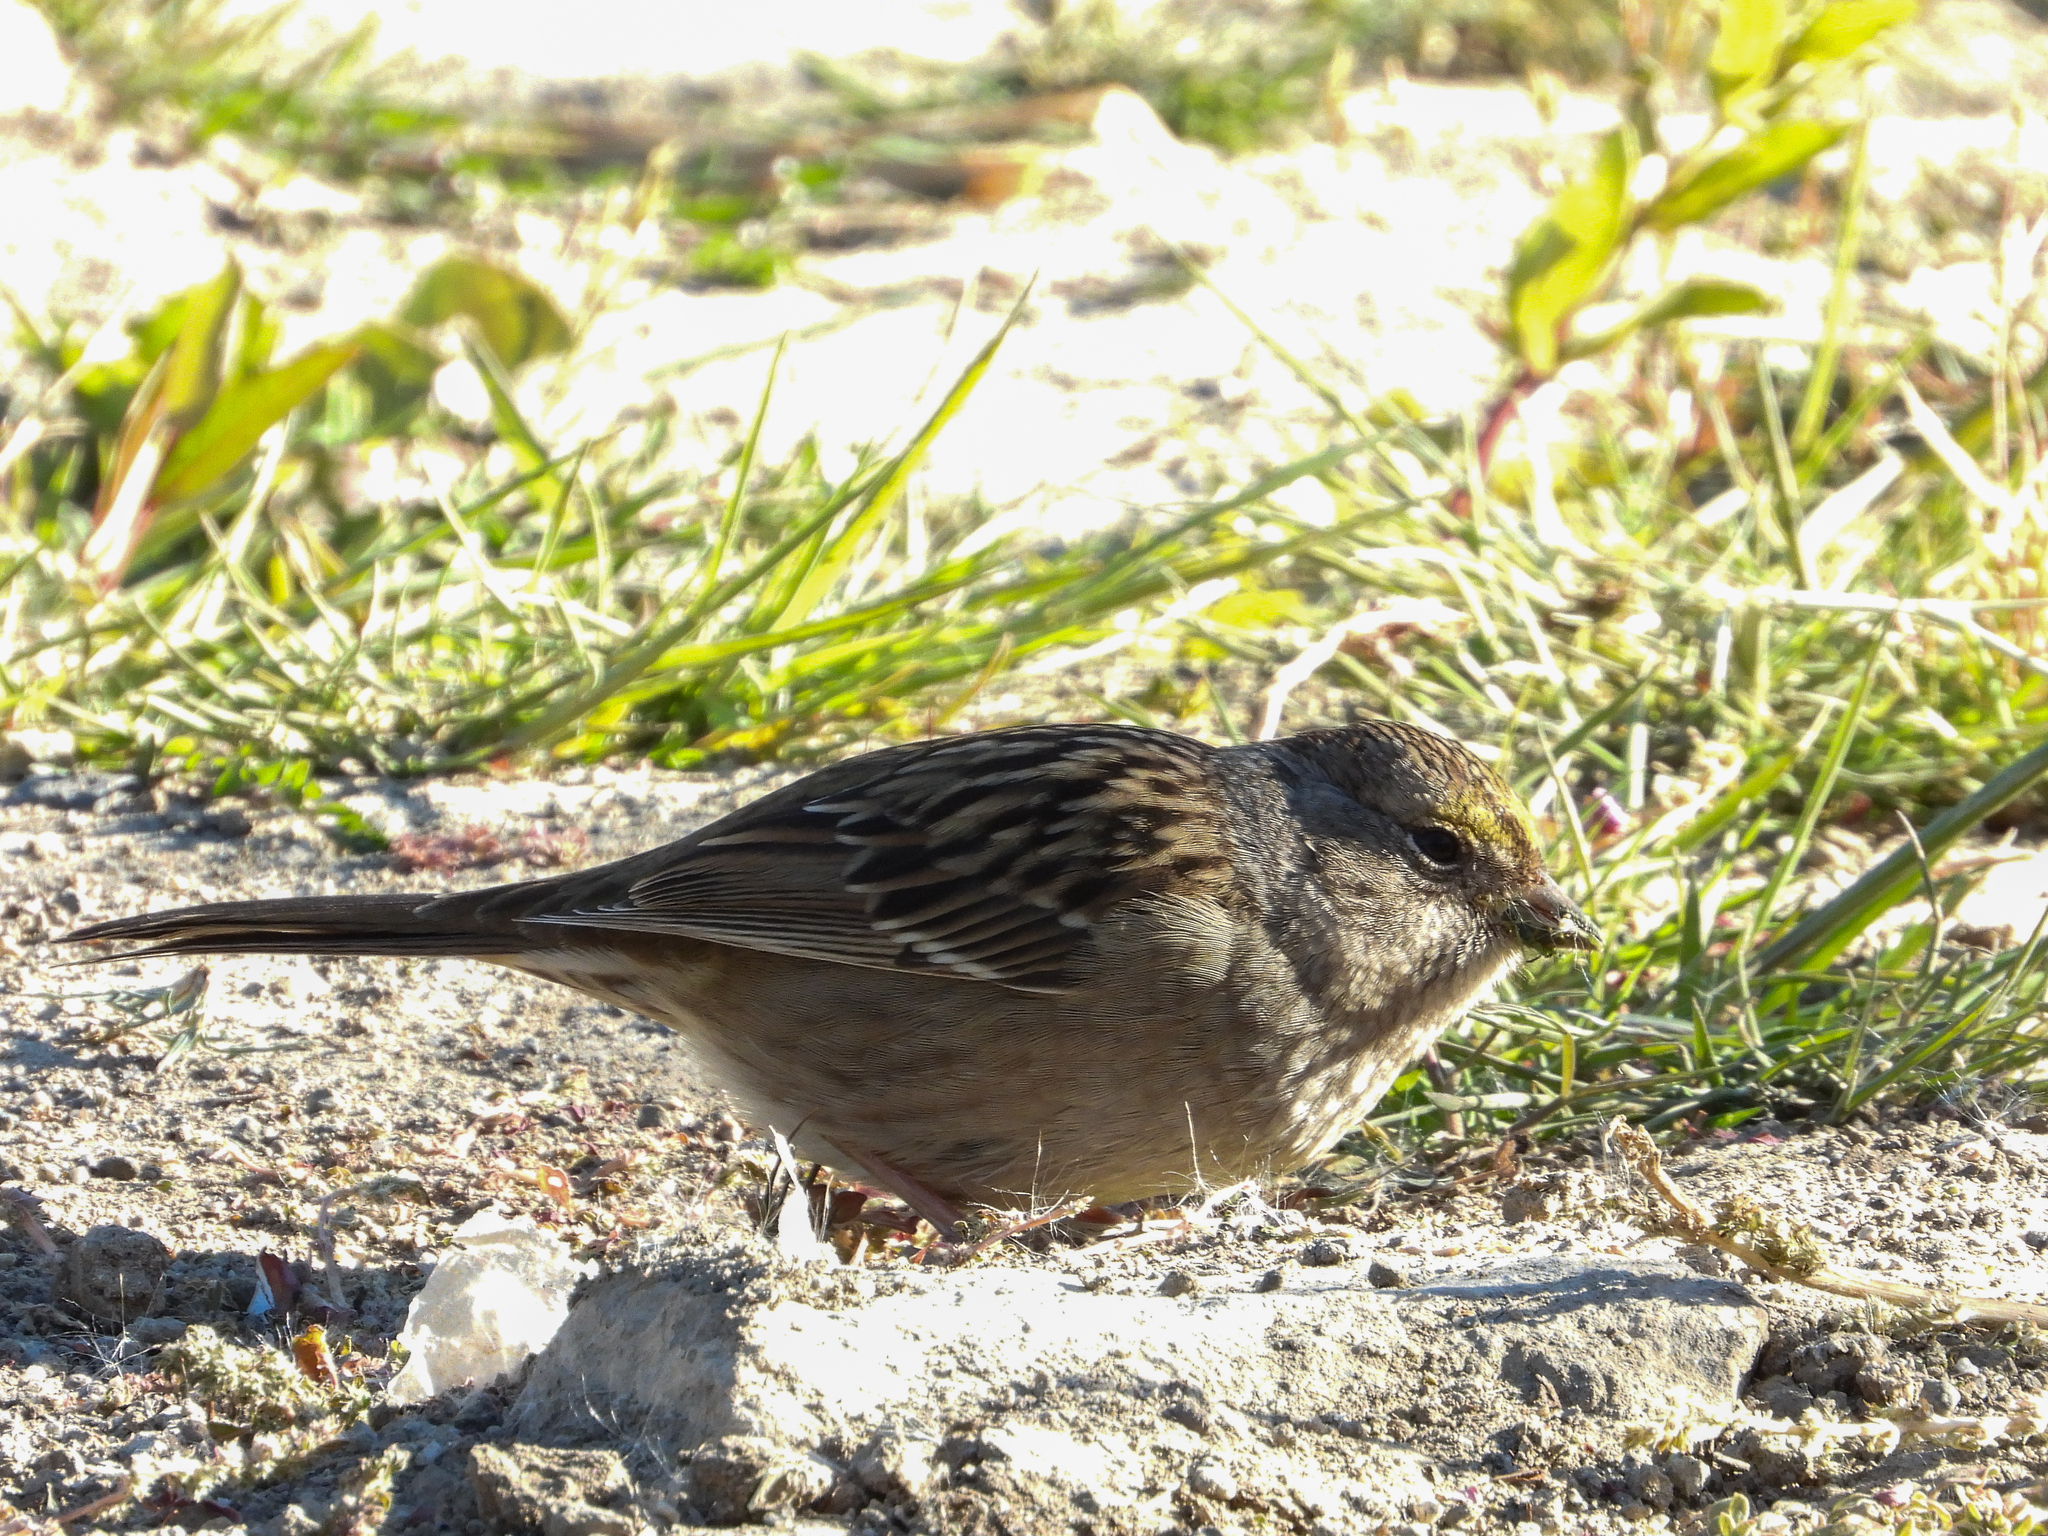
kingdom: Animalia
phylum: Chordata
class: Aves
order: Passeriformes
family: Passerellidae
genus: Zonotrichia
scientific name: Zonotrichia atricapilla
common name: Golden-crowned sparrow
